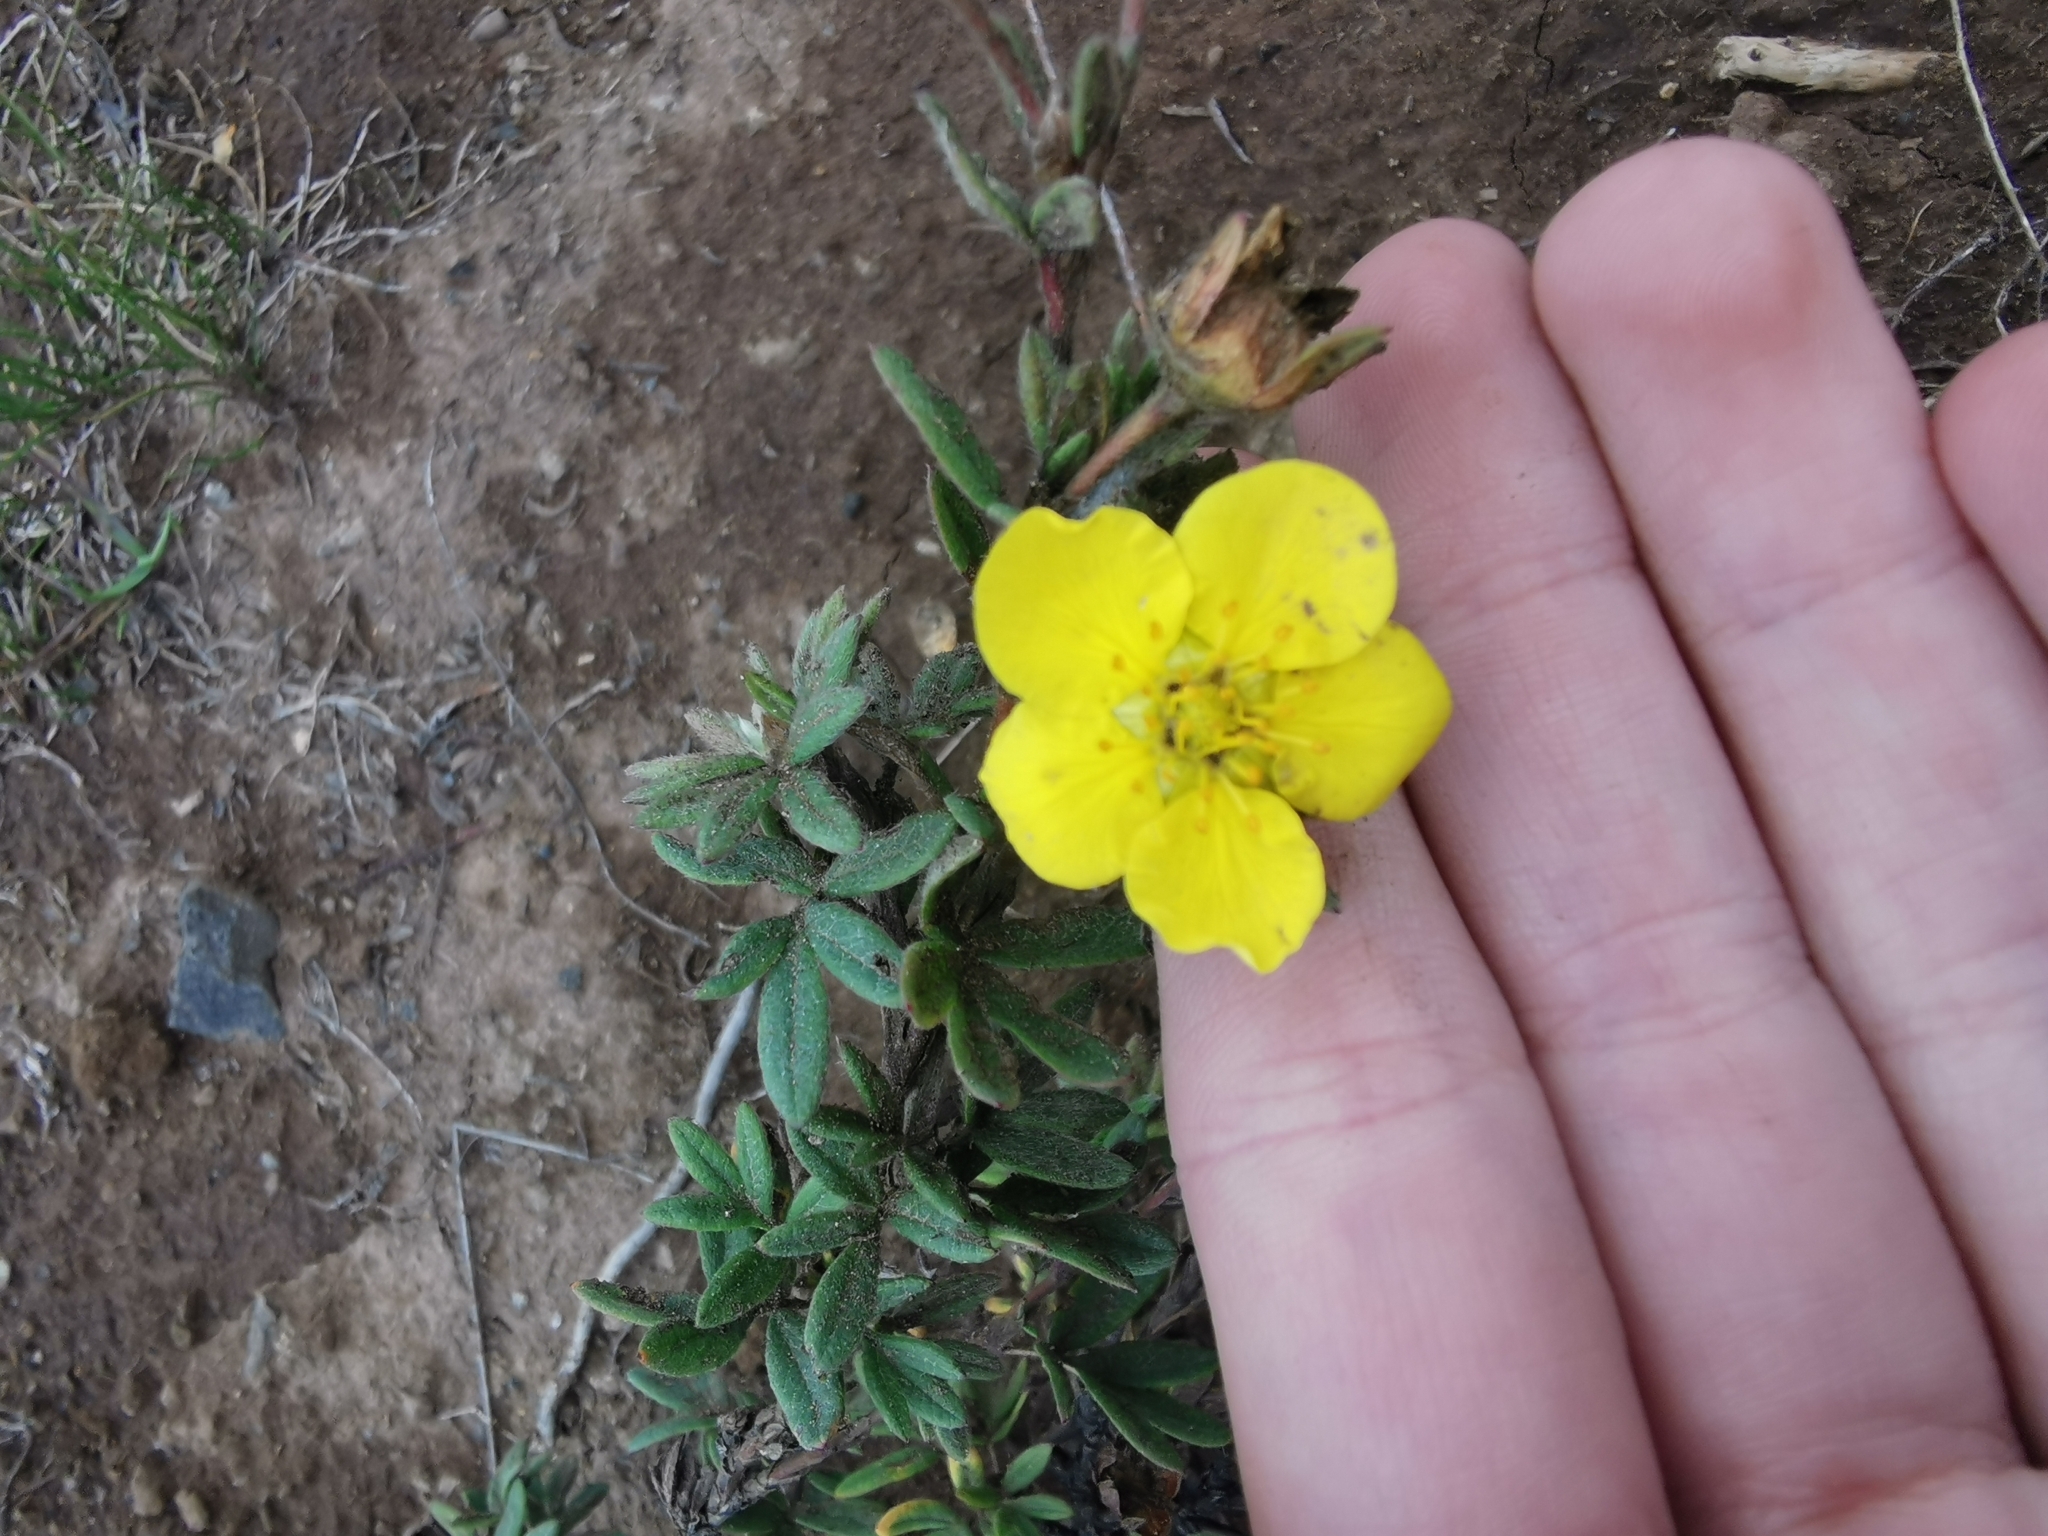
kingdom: Plantae
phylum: Tracheophyta
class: Magnoliopsida
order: Rosales
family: Rosaceae
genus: Dasiphora
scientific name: Dasiphora fruticosa
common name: Shrubby cinquefoil
